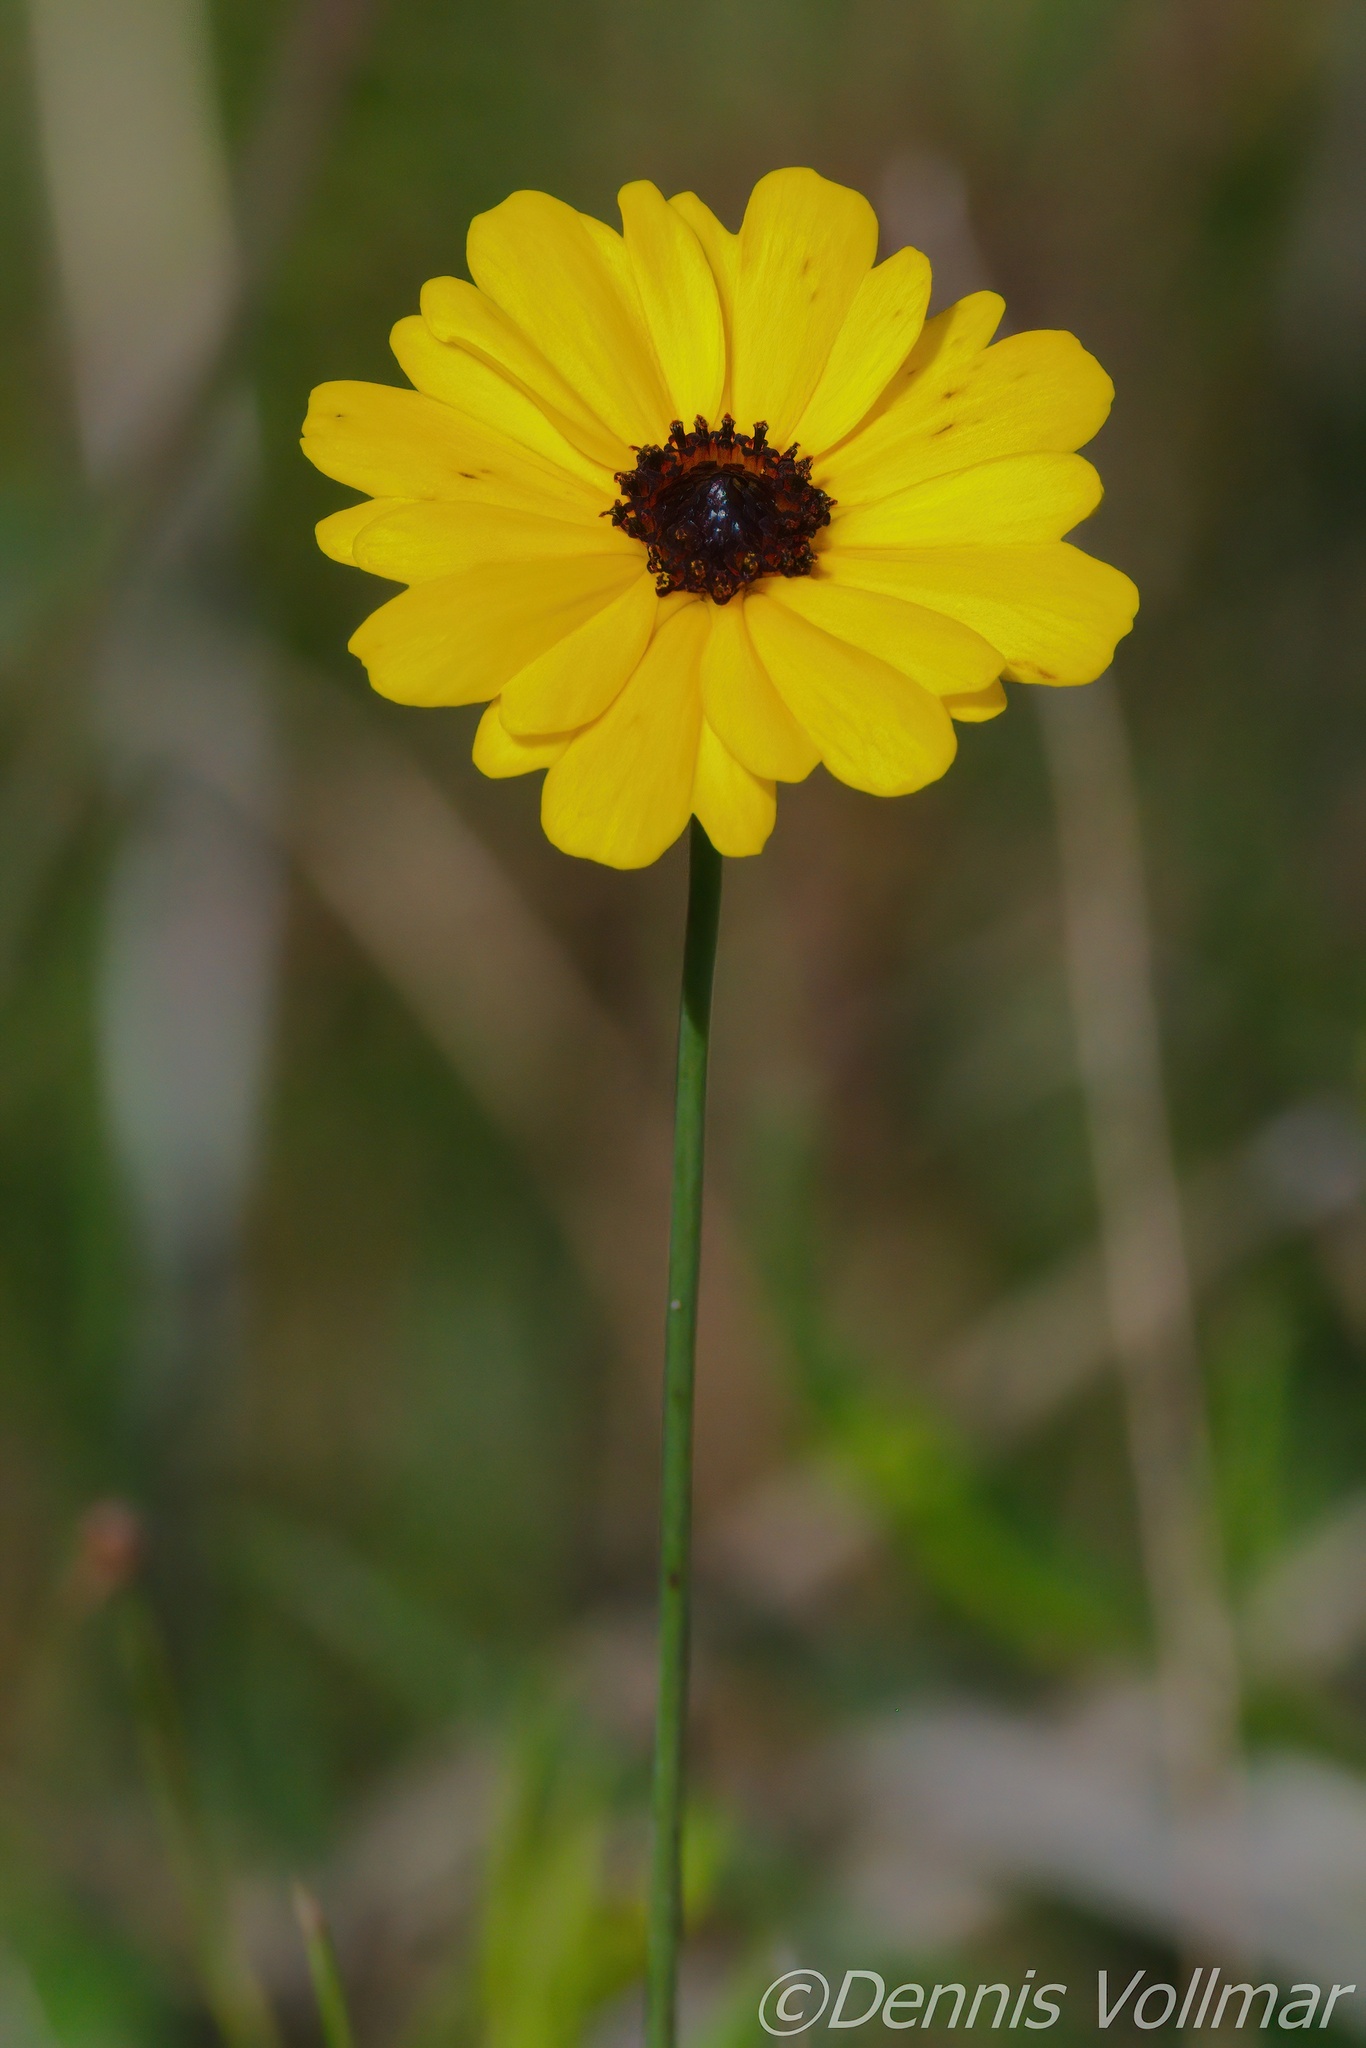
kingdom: Plantae
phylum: Tracheophyta
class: Magnoliopsida
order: Asterales
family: Asteraceae
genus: Coreopsis
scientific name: Coreopsis leavenworthii
